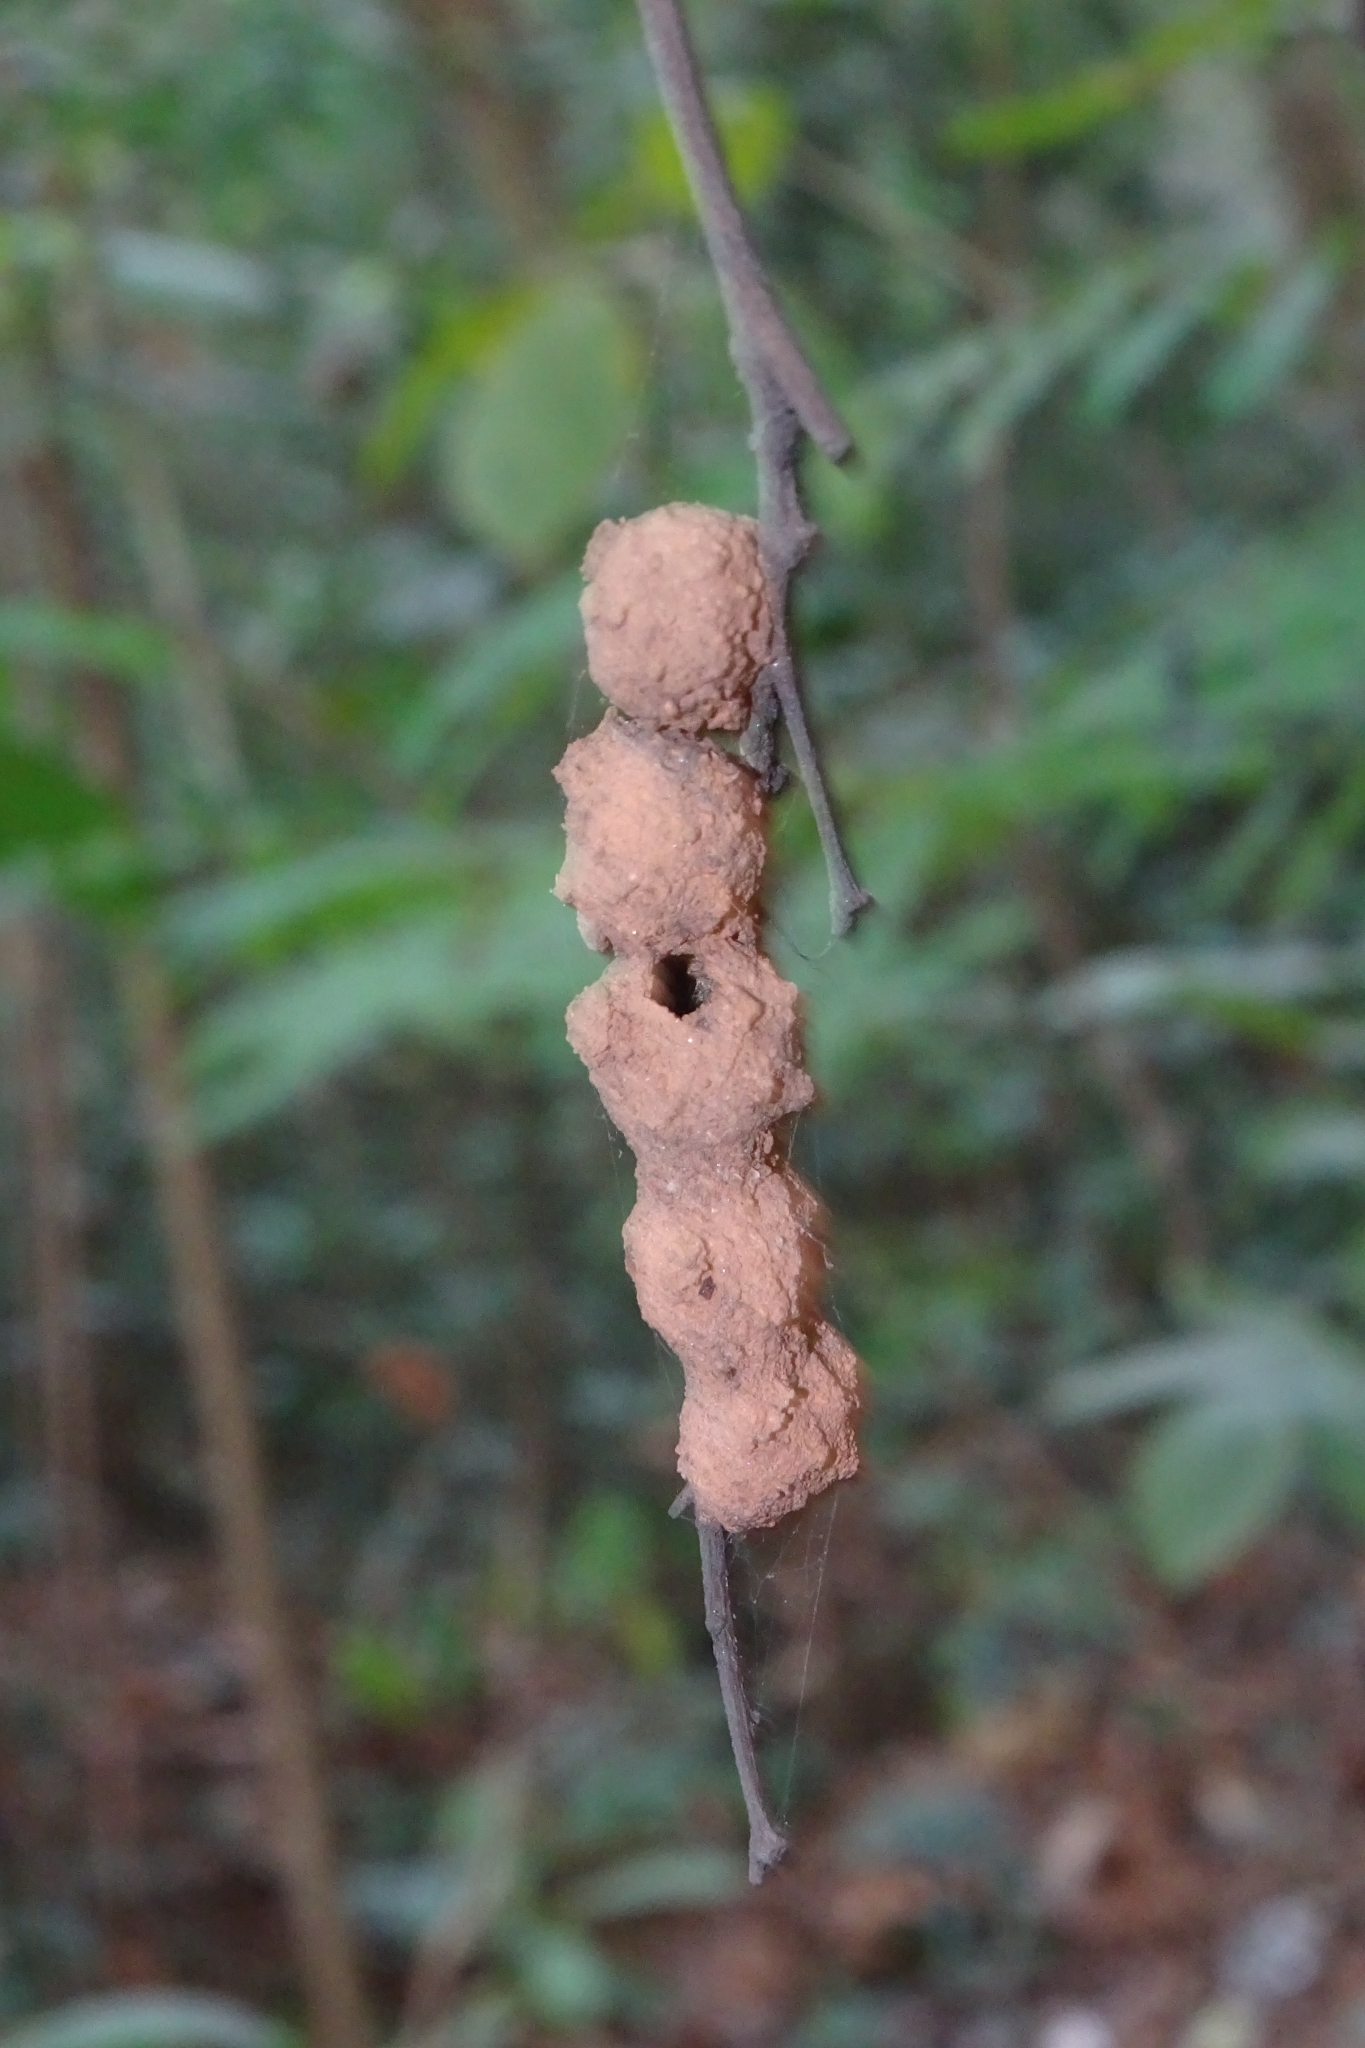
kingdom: Animalia
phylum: Arthropoda
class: Insecta
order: Hymenoptera
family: Eumenidae
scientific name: Eumenidae
